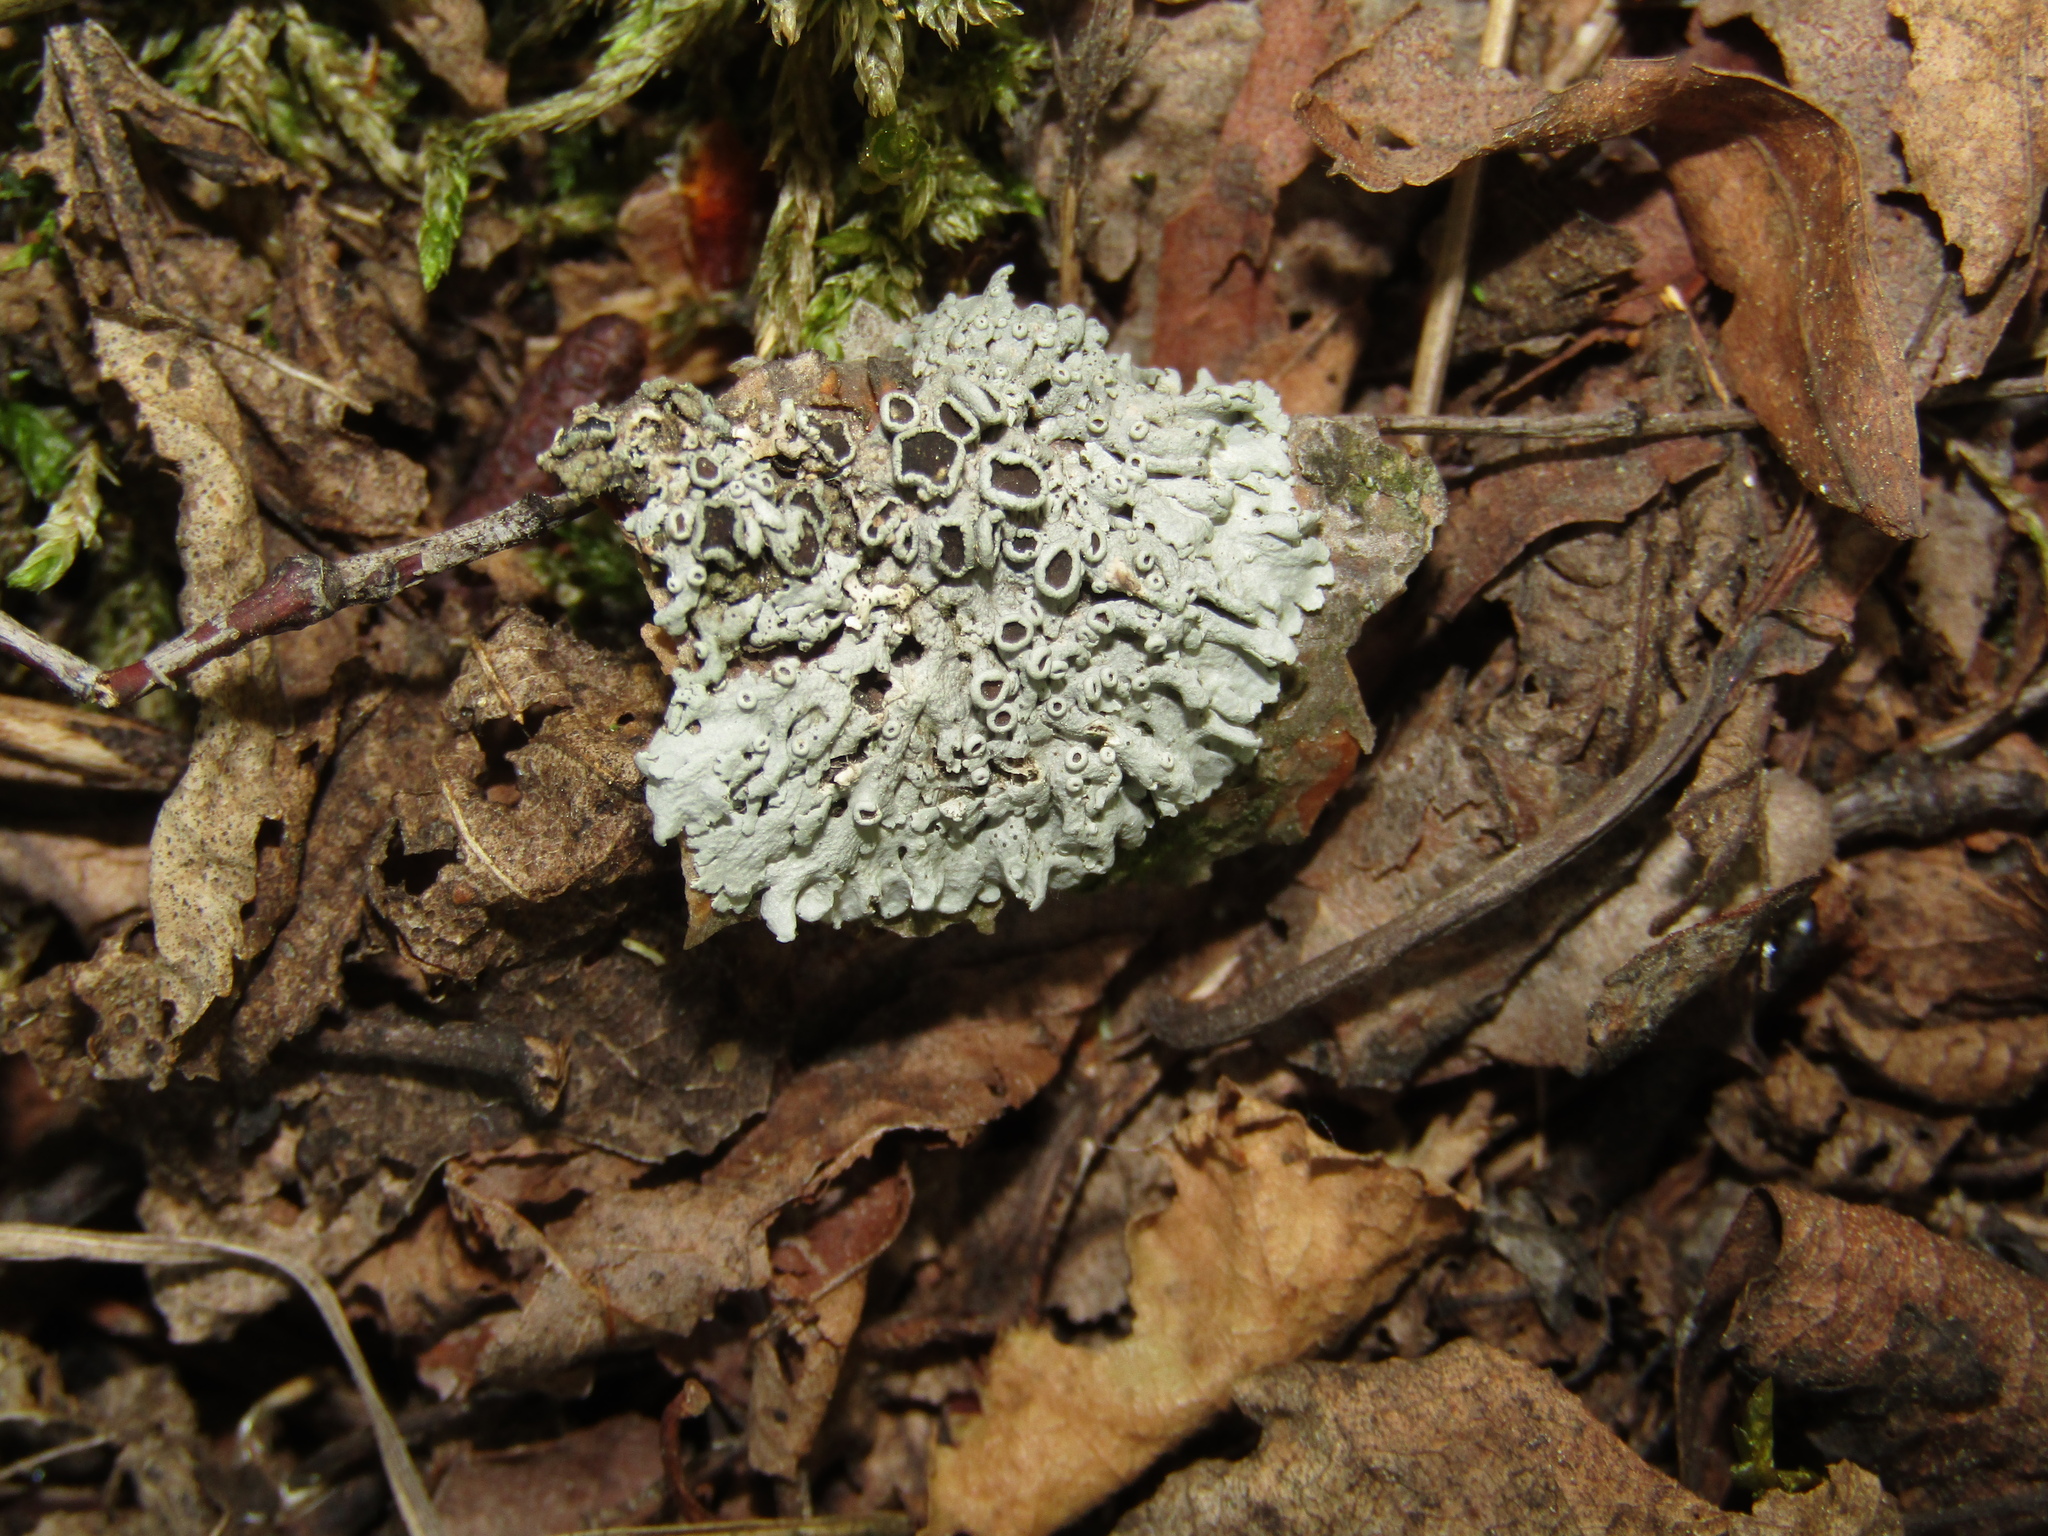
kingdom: Fungi
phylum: Ascomycota
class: Lecanoromycetes
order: Caliciales
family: Physciaceae
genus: Physcia
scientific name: Physcia stellaris
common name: Star rosette lichen
